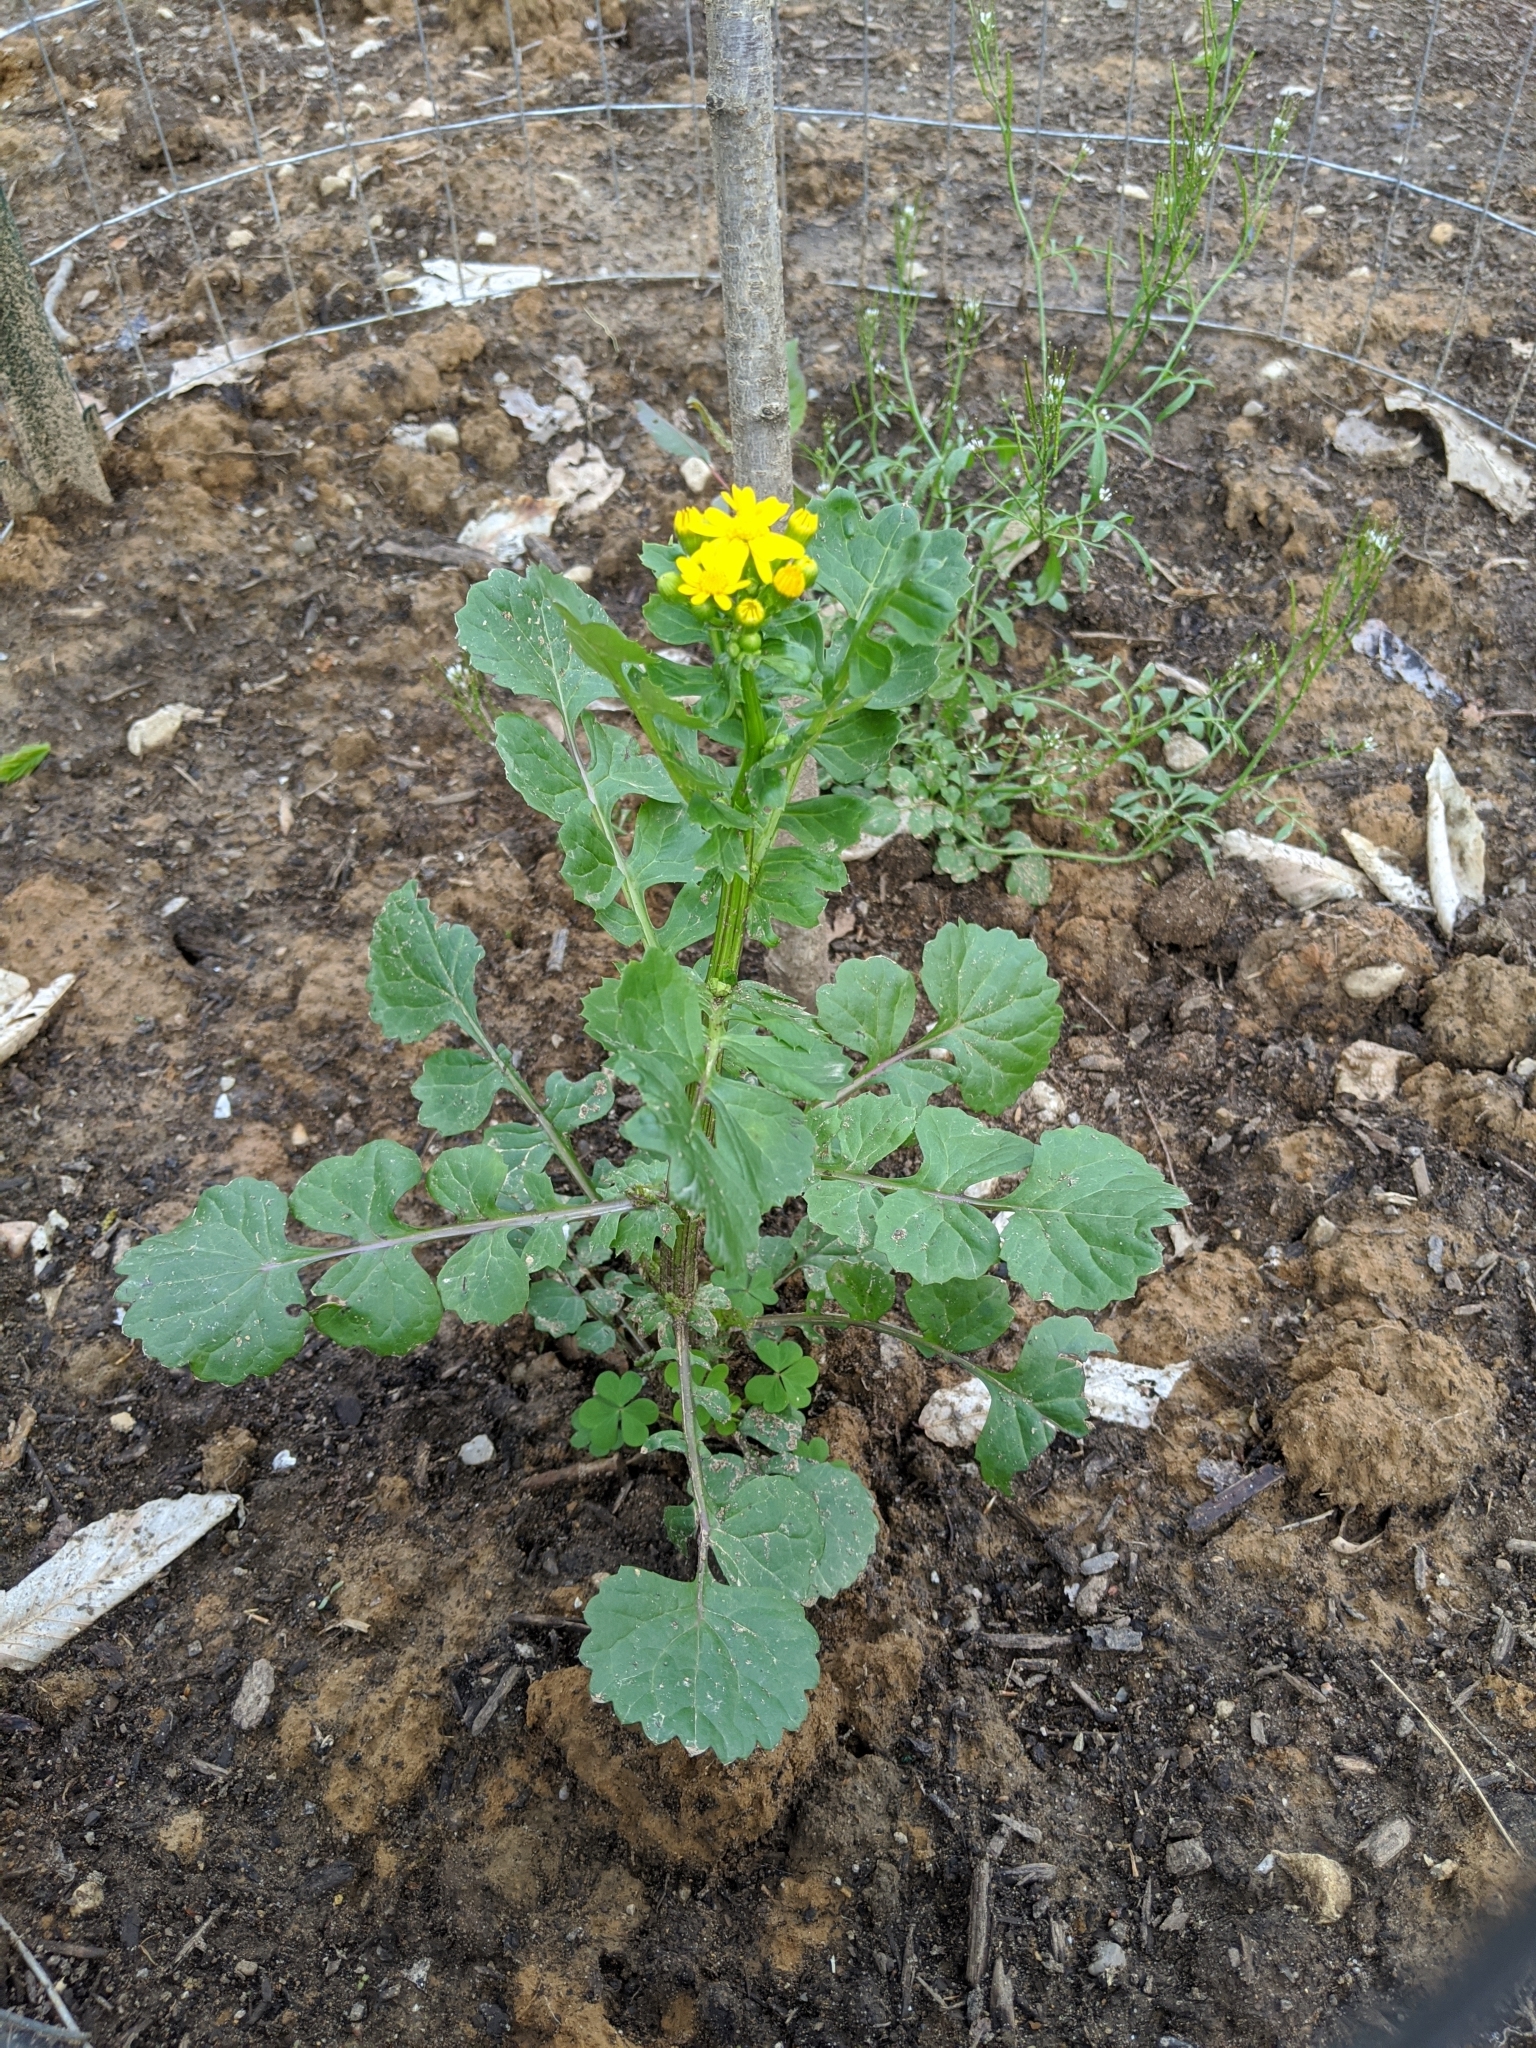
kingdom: Plantae
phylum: Tracheophyta
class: Magnoliopsida
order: Asterales
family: Asteraceae
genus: Packera
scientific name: Packera glabella
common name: Butterweed
